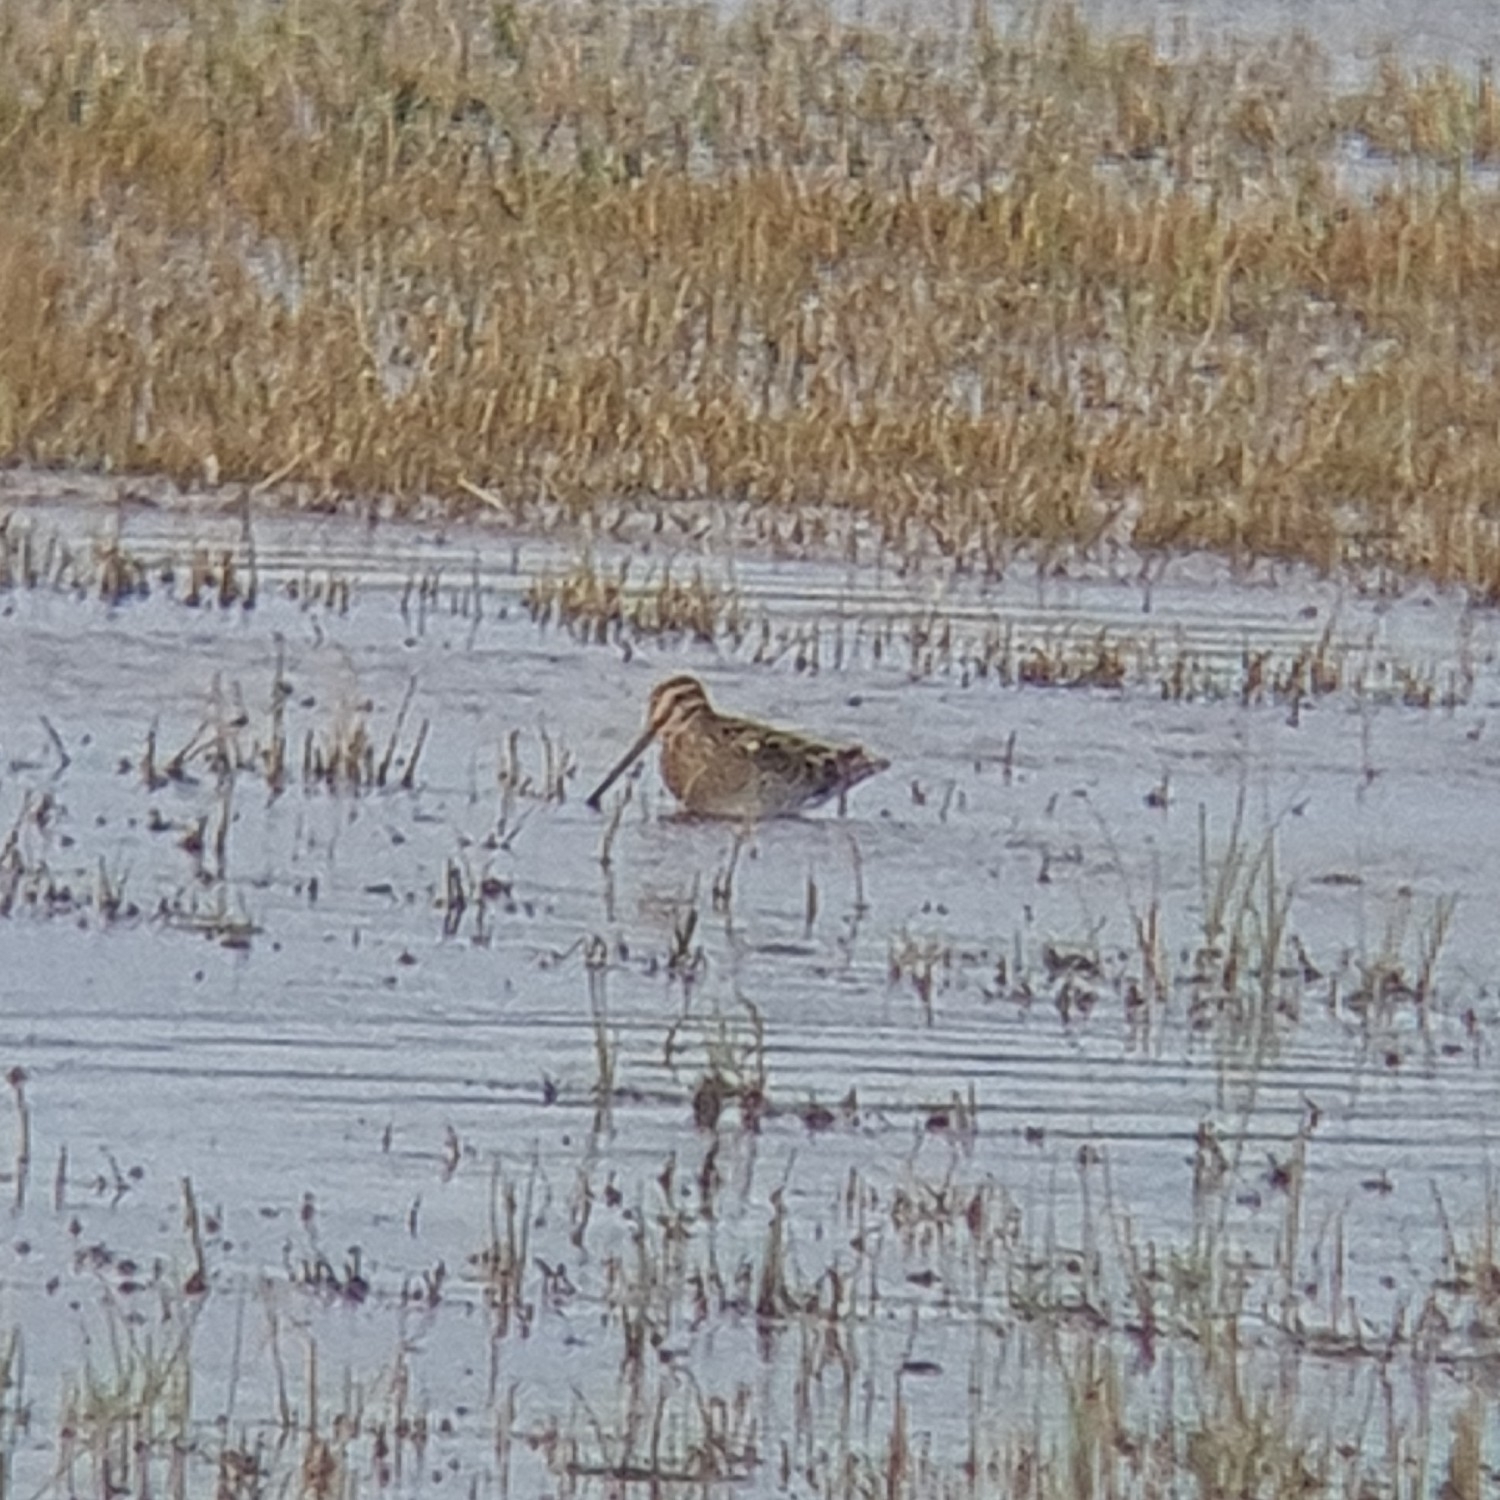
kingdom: Animalia
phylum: Chordata
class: Aves
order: Charadriiformes
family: Scolopacidae
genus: Gallinago
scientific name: Gallinago gallinago
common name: Common snipe
